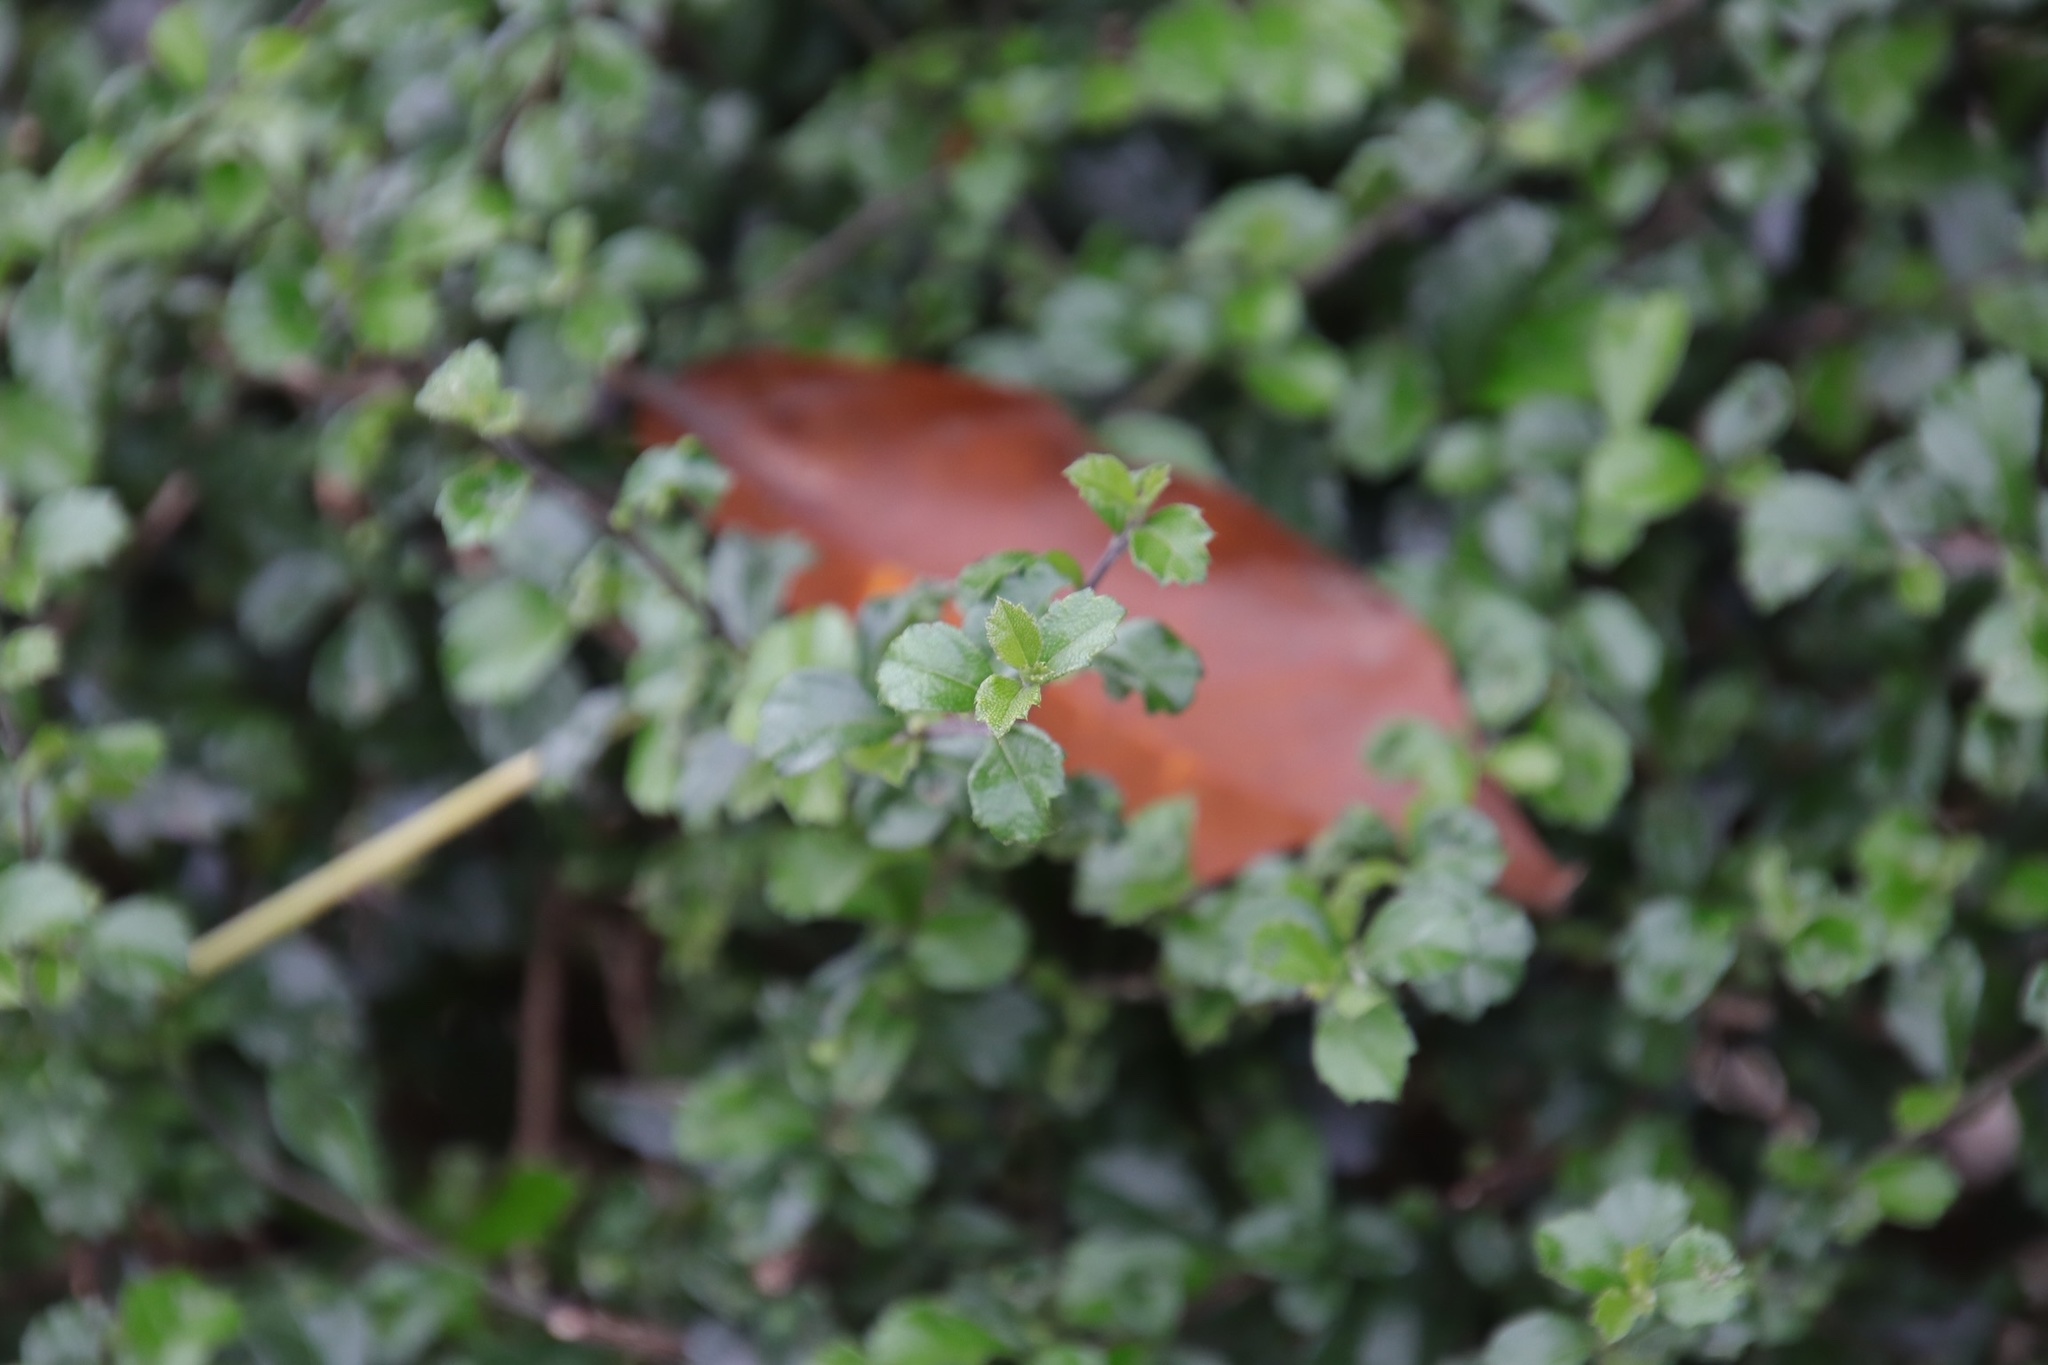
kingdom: Plantae
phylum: Tracheophyta
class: Magnoliopsida
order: Boraginales
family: Ehretiaceae
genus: Ehretia
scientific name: Ehretia microphylla
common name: Fukien-tea
